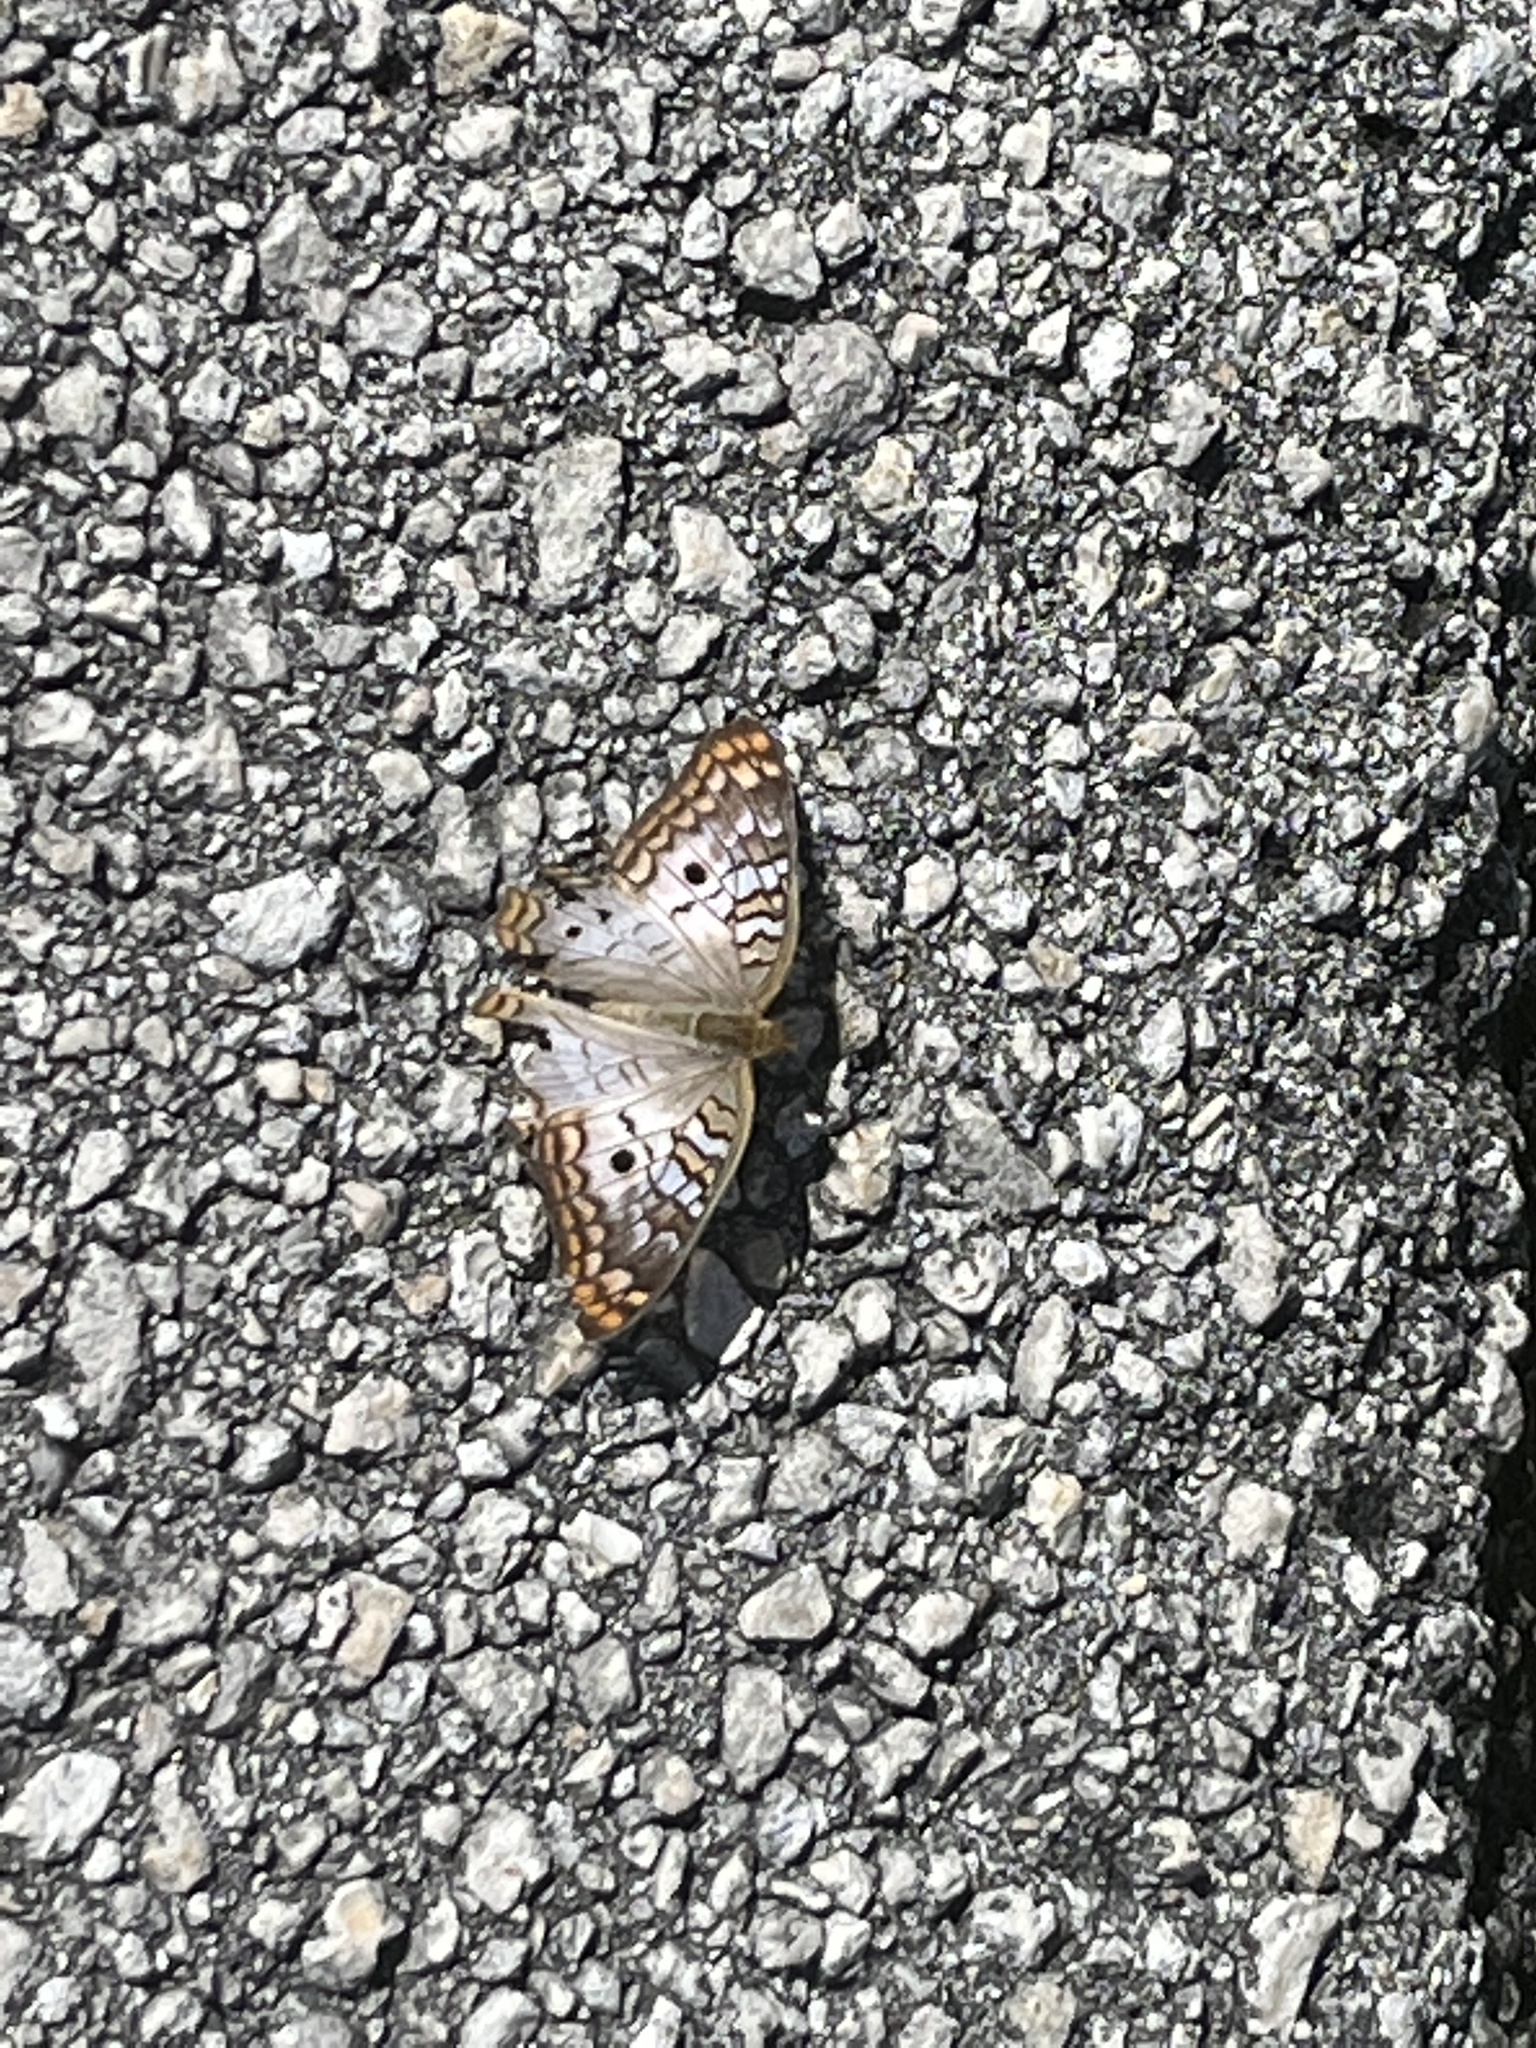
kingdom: Animalia
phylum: Arthropoda
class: Insecta
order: Lepidoptera
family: Nymphalidae
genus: Anartia
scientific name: Anartia jatrophae
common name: White peacock
